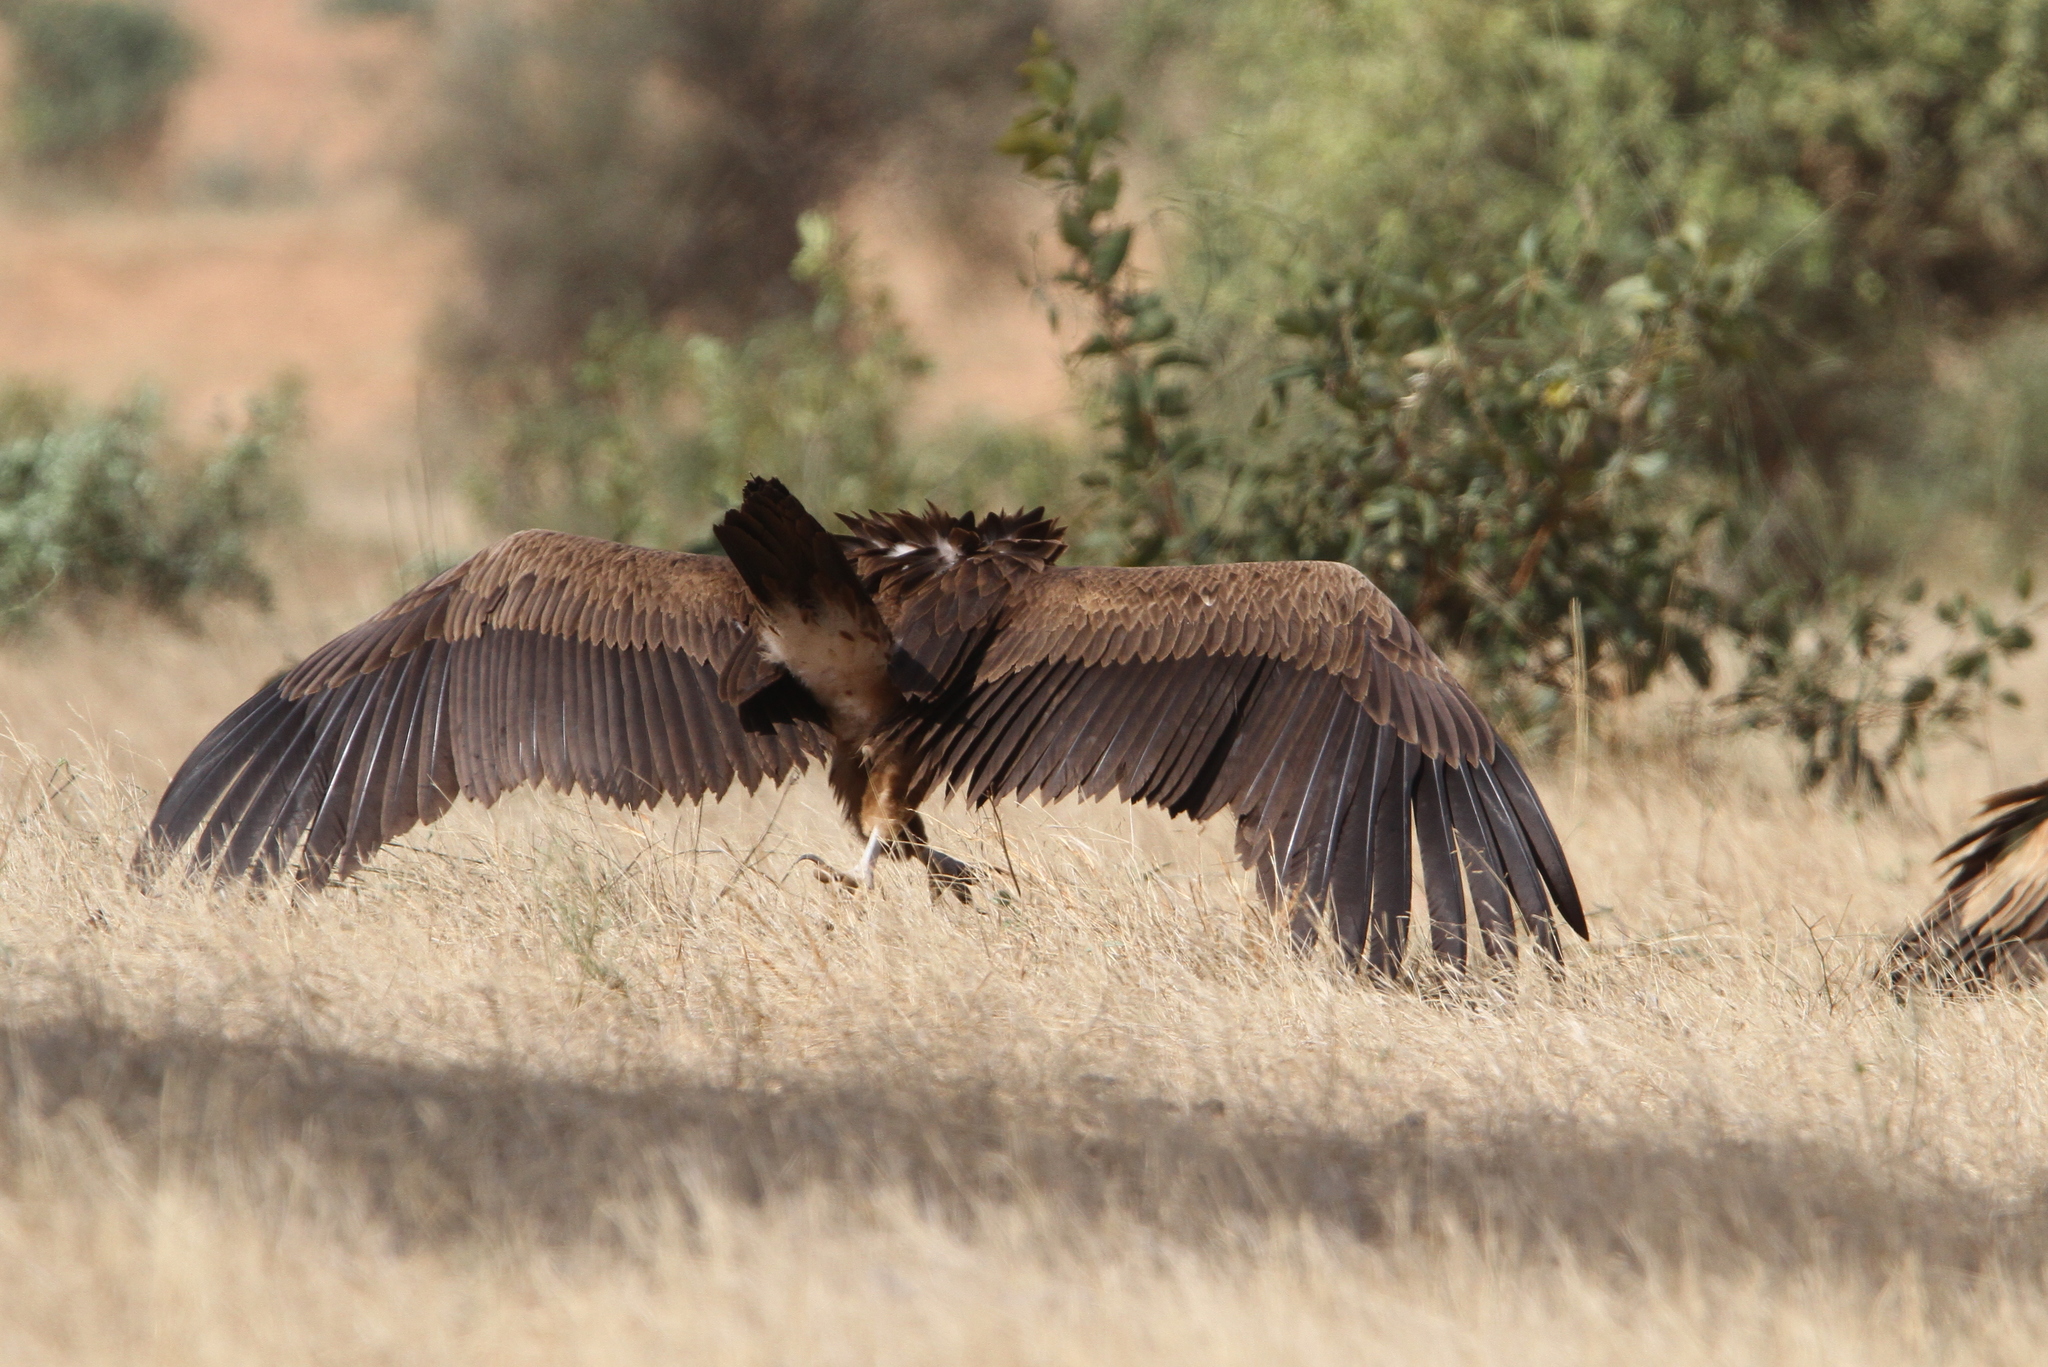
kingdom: Animalia
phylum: Chordata
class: Aves
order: Accipitriformes
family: Accipitridae
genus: Torgos
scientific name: Torgos tracheliotos
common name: Lappet-faced vulture
